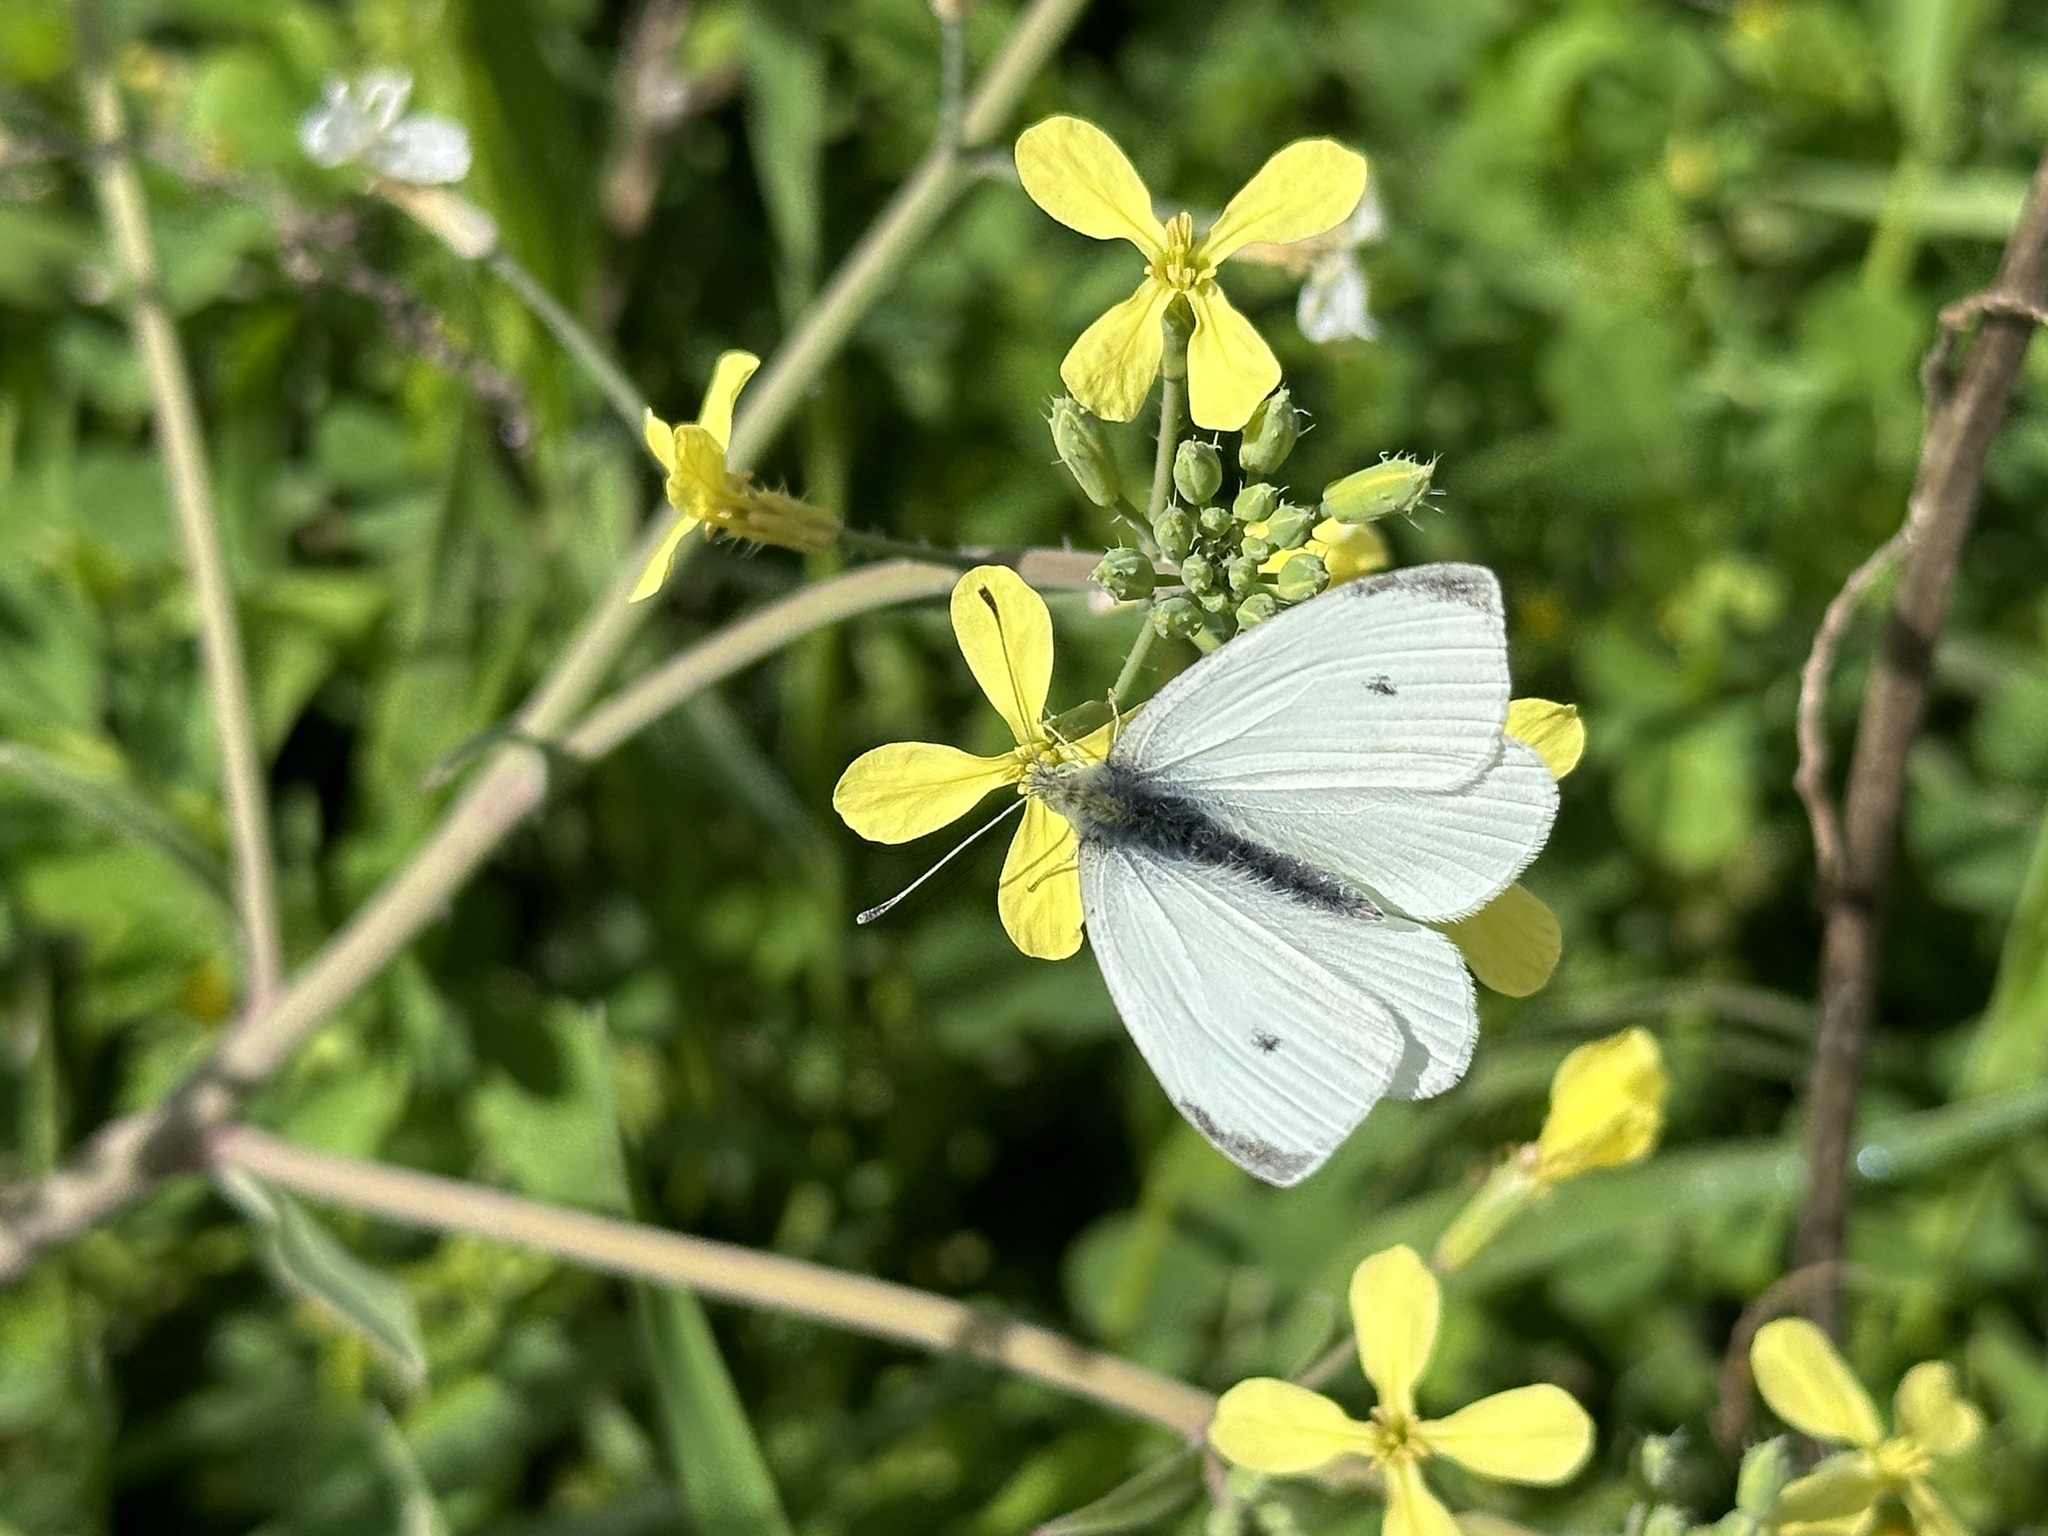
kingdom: Animalia
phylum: Arthropoda
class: Insecta
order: Lepidoptera
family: Pieridae
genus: Pieris
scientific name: Pieris rapae
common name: Small white
